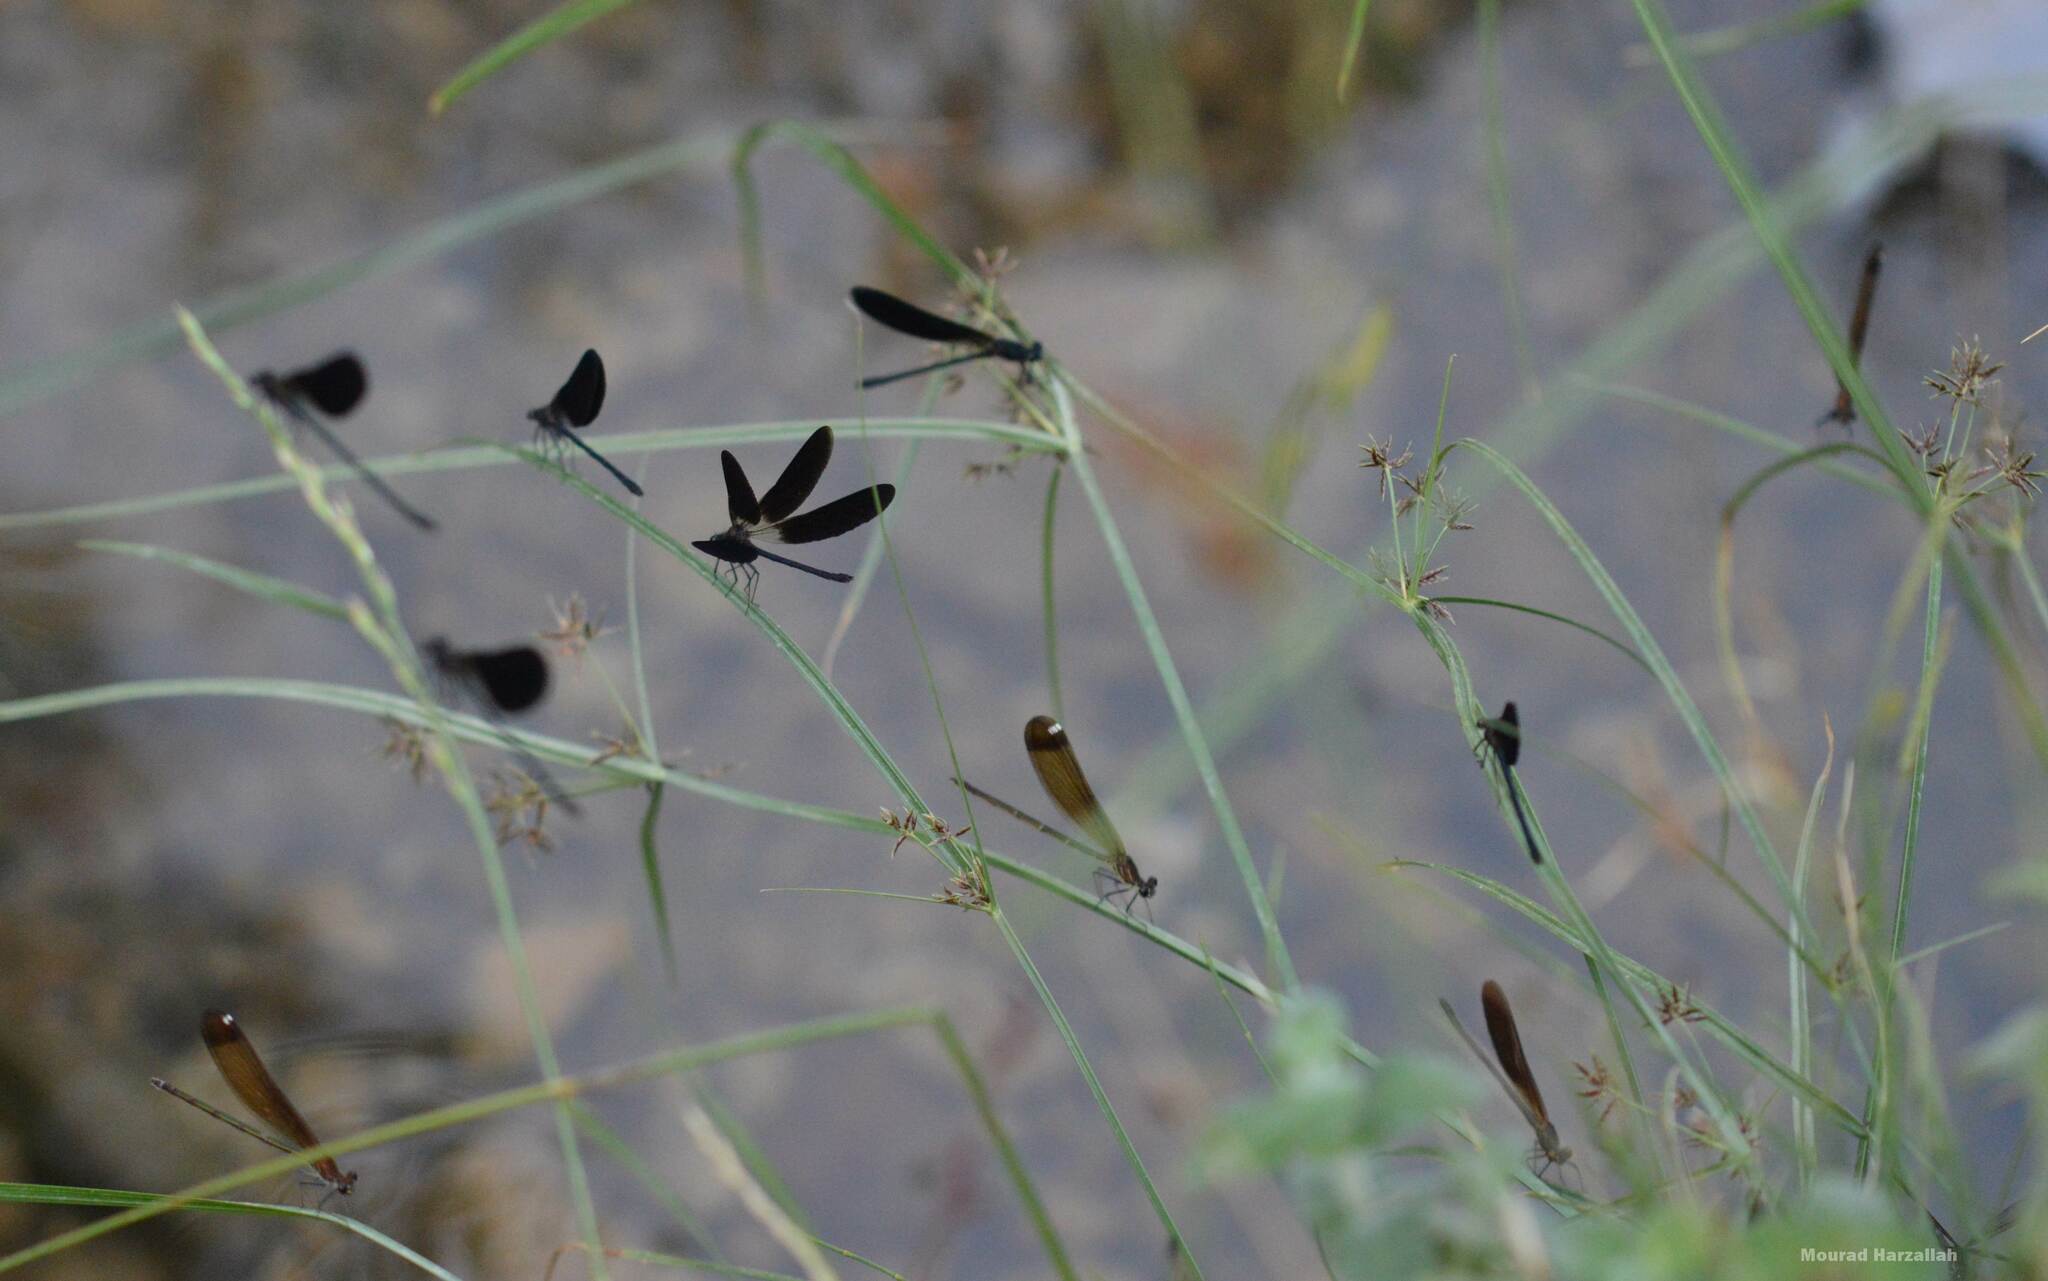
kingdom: Animalia
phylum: Arthropoda
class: Insecta
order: Odonata
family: Calopterygidae
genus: Calopteryx
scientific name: Calopteryx haemorrhoidalis
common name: Copper demoiselle
